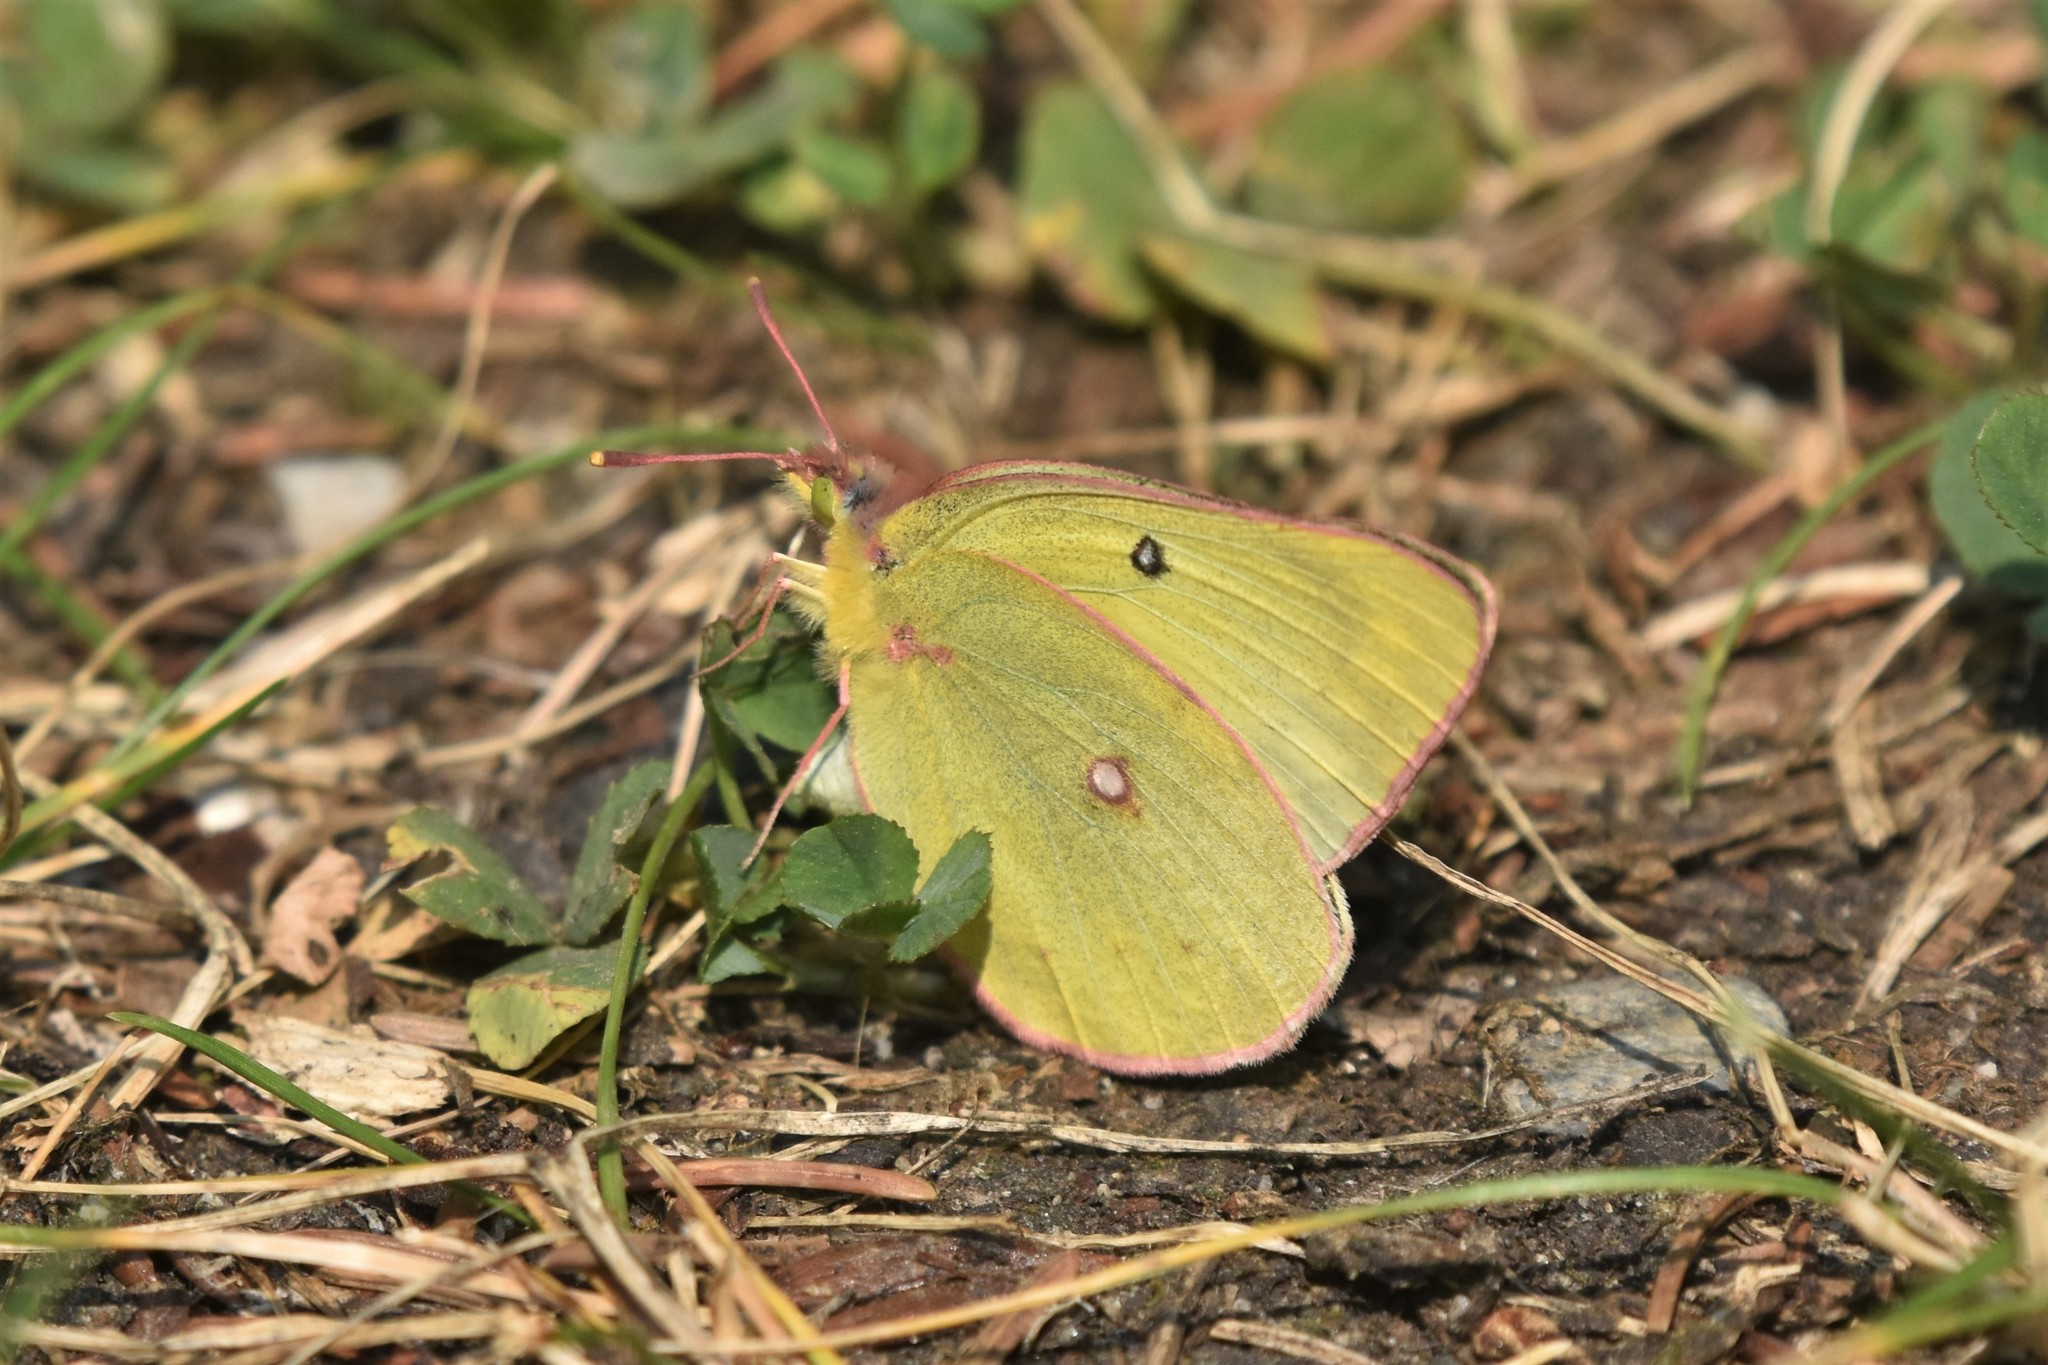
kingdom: Animalia
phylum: Arthropoda
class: Insecta
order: Lepidoptera
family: Pieridae
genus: Colias
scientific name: Colias philodice
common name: Clouded sulphur
